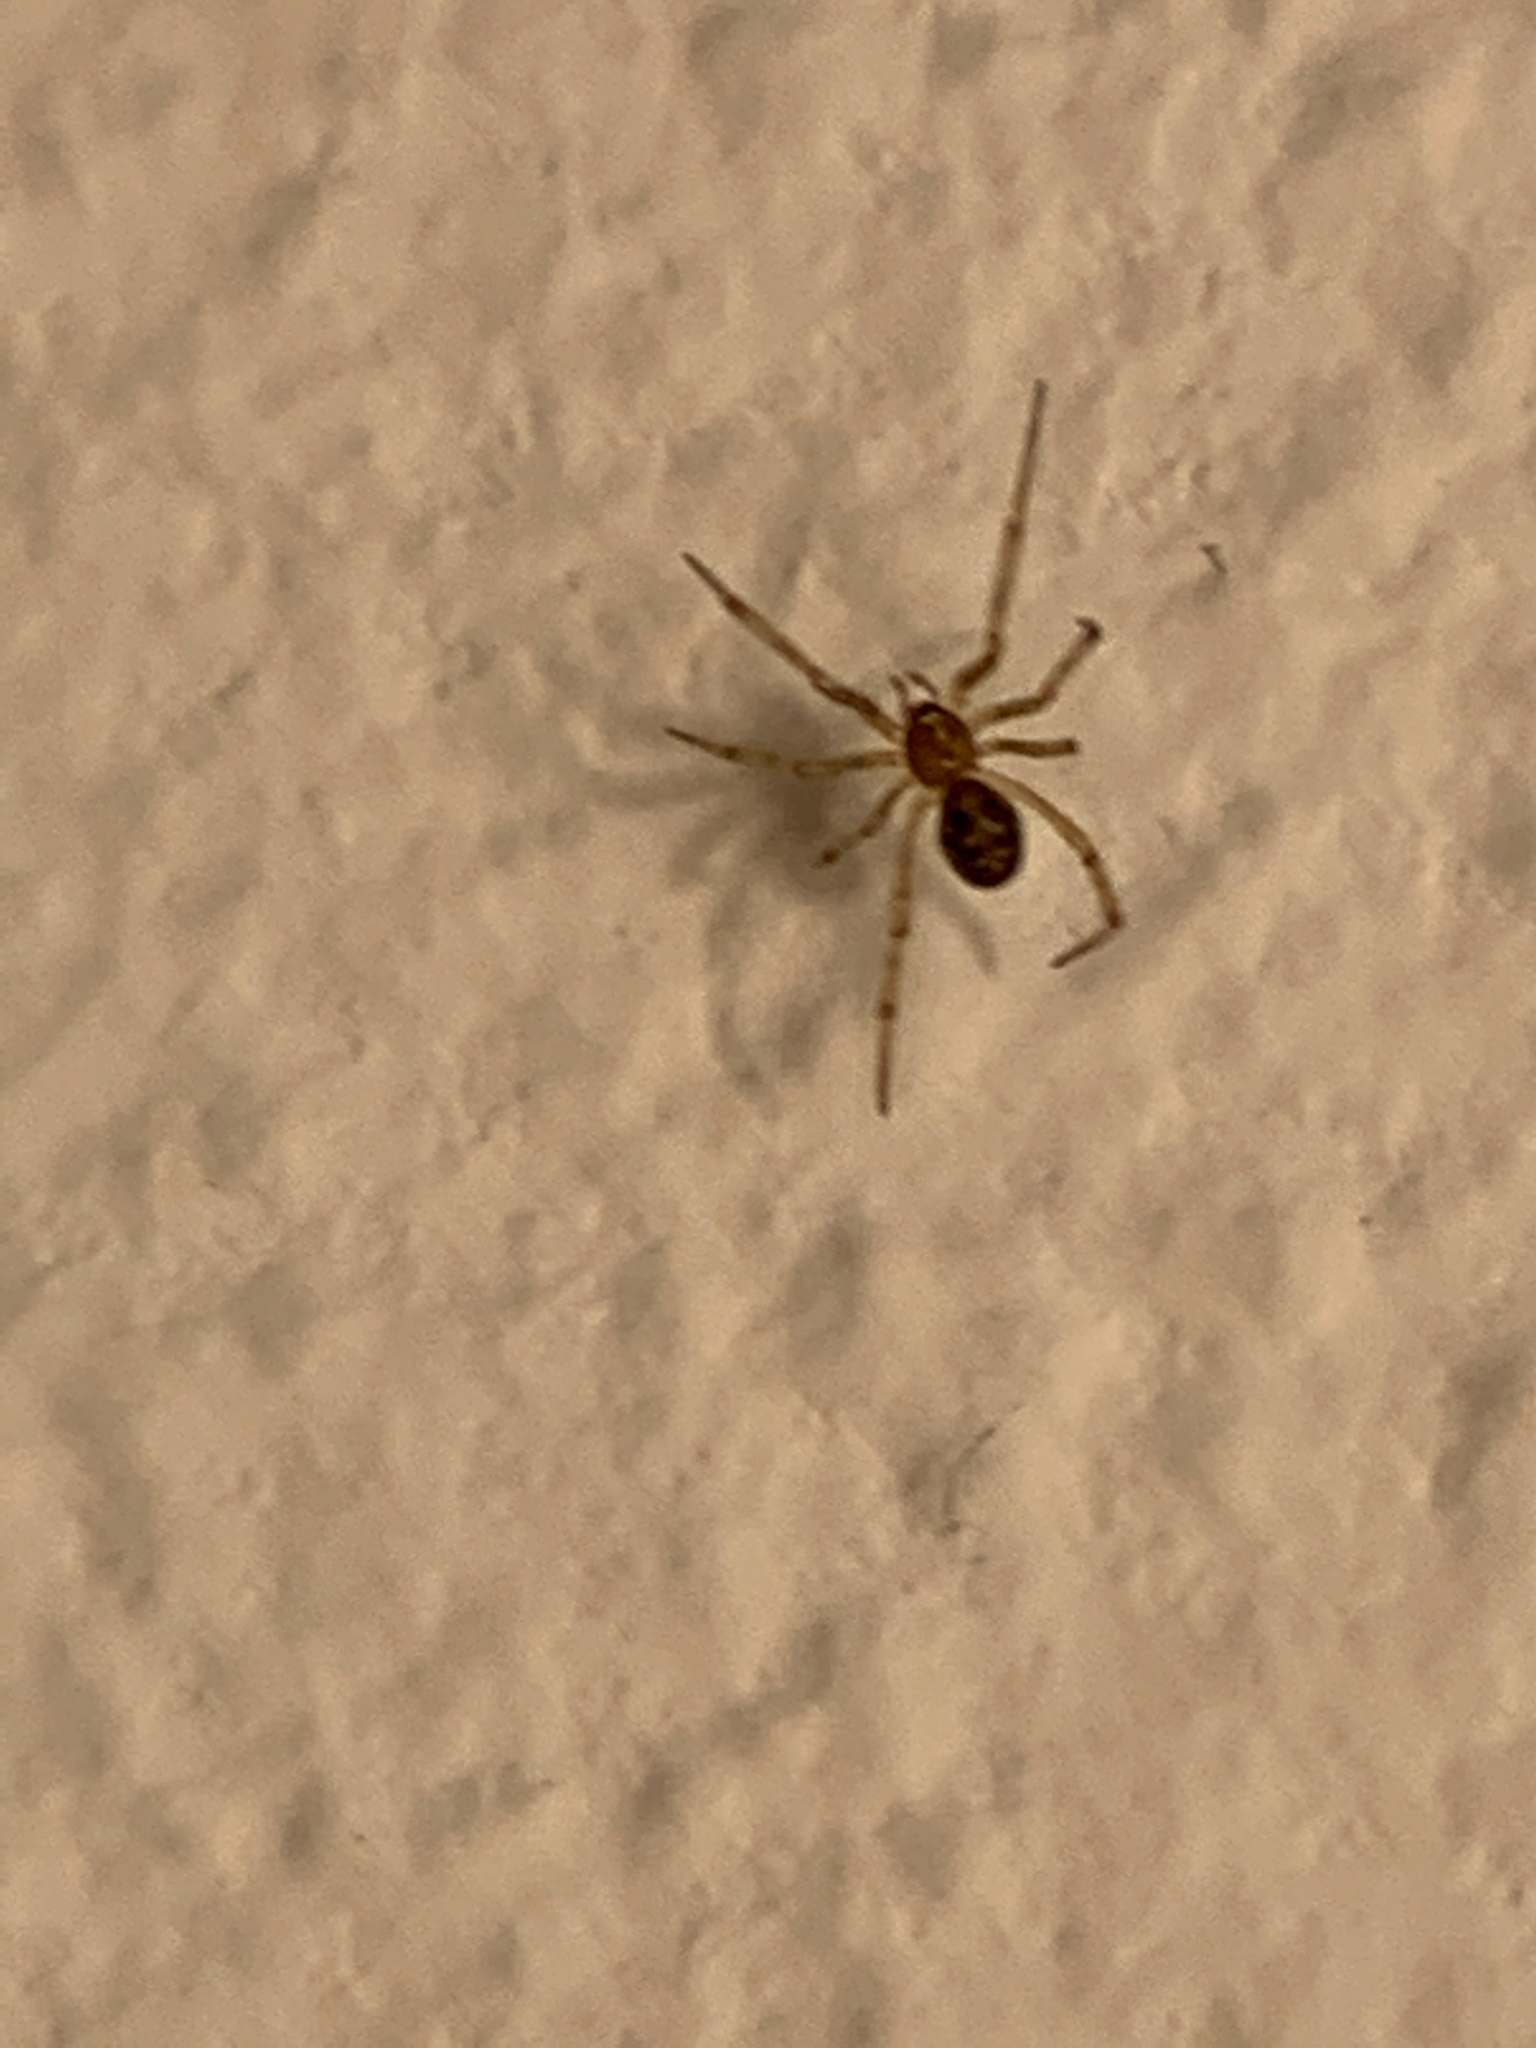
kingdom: Animalia
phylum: Arthropoda
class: Arachnida
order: Araneae
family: Theridiidae
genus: Steatoda
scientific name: Steatoda triangulosa
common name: Triangulate bud spider
